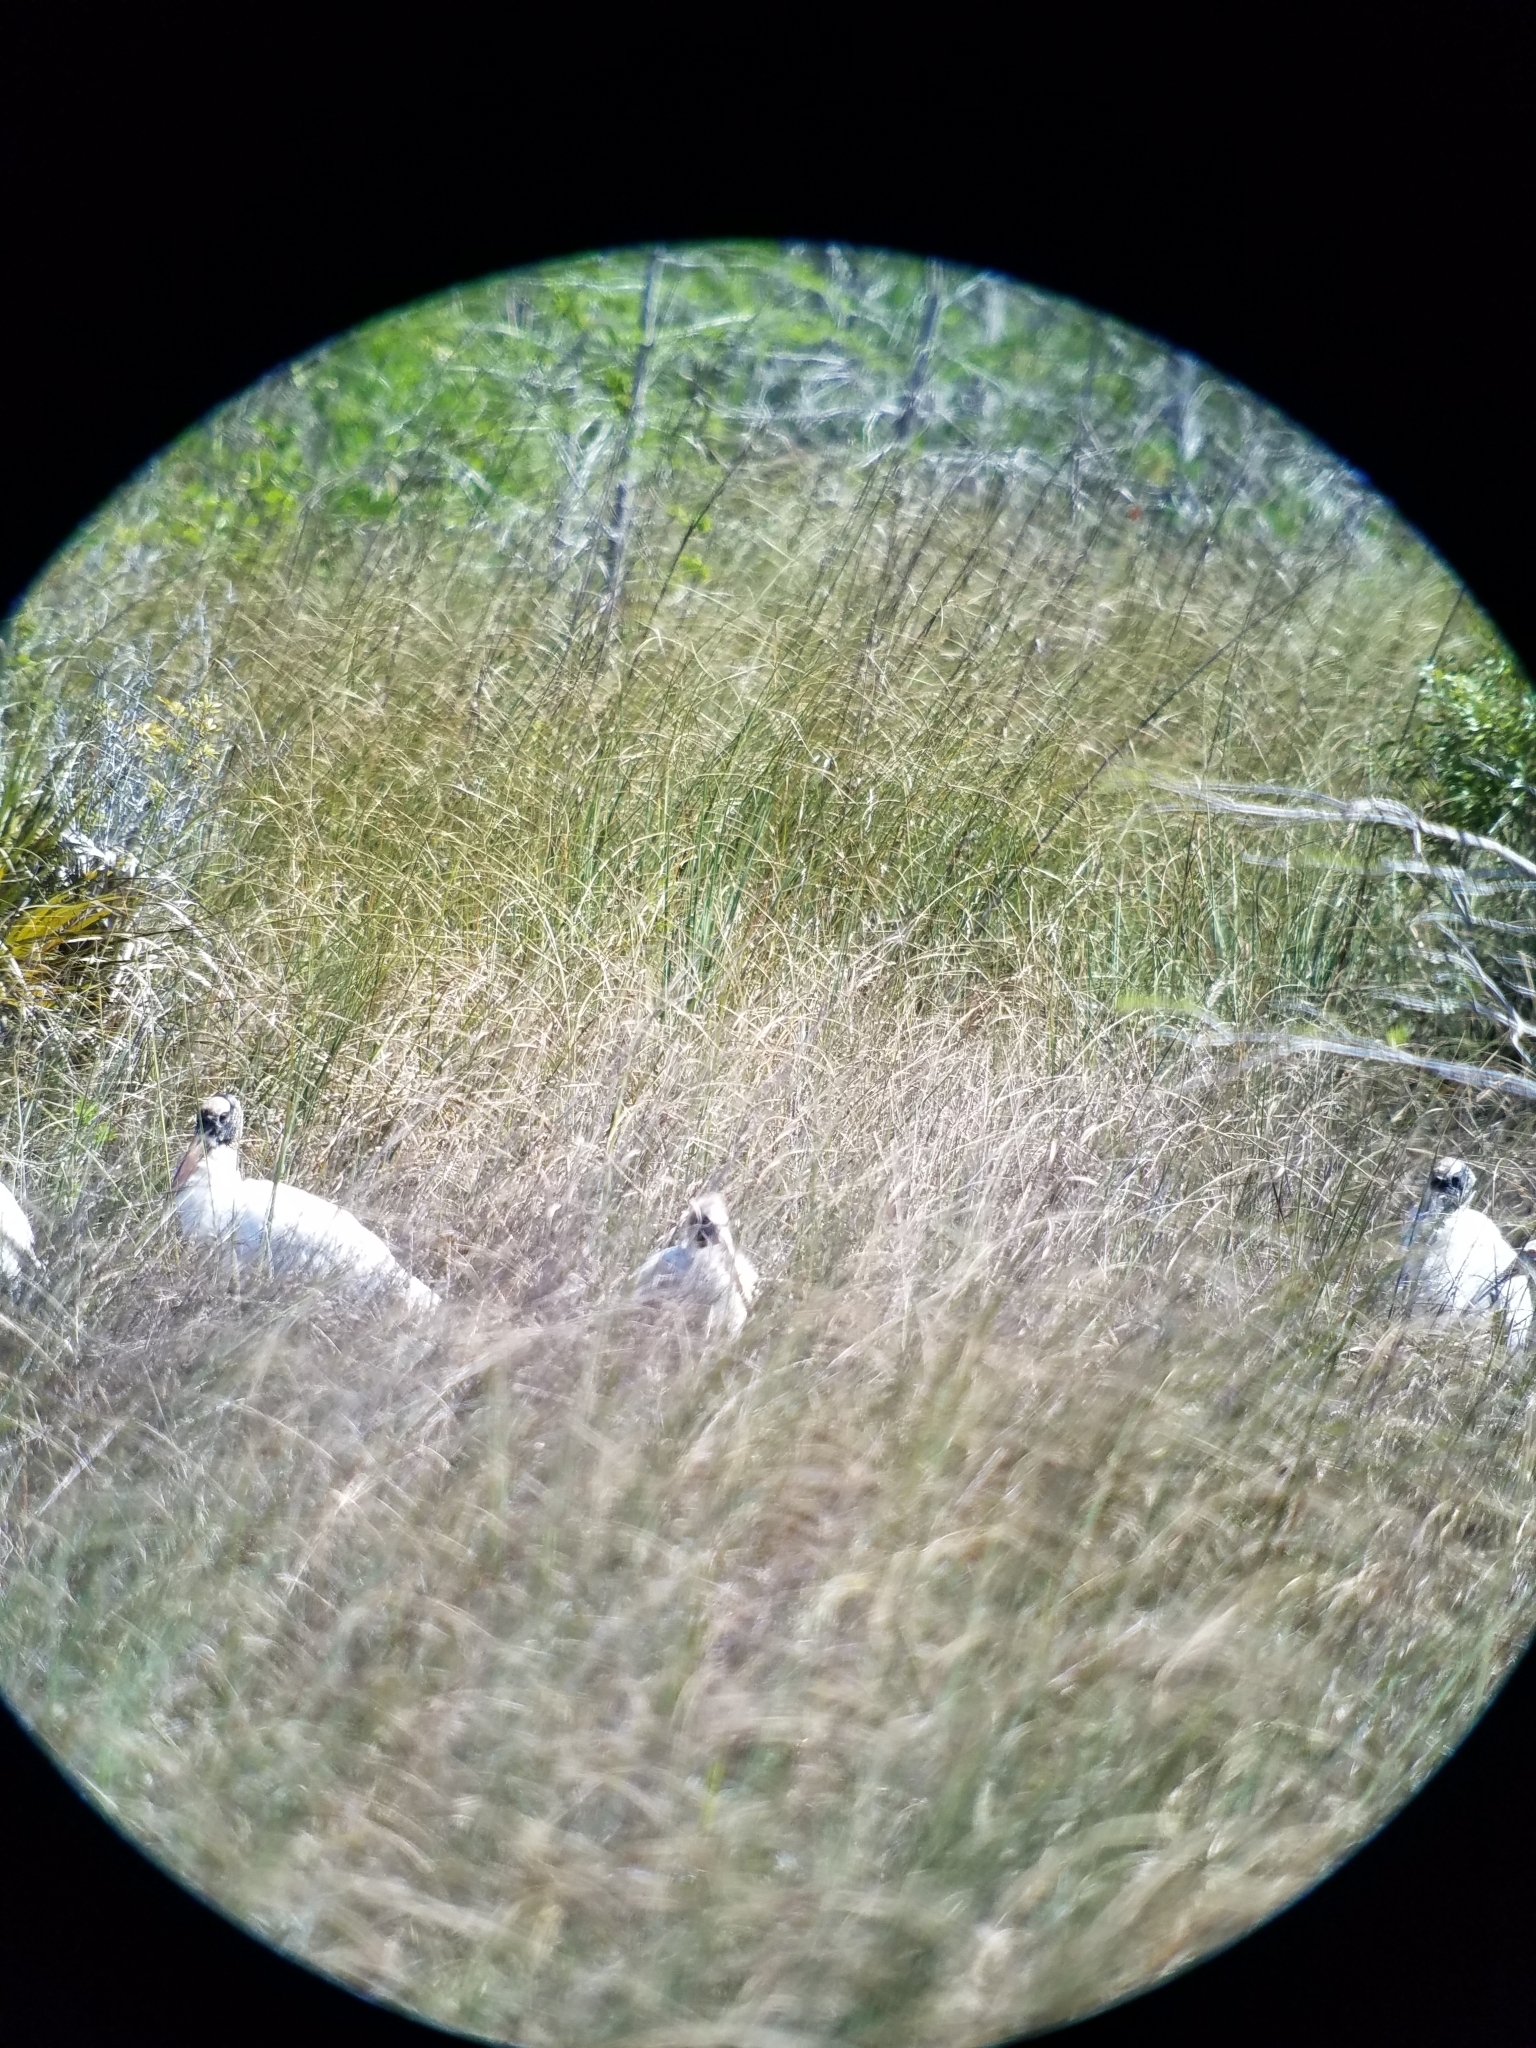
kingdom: Animalia
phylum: Chordata
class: Aves
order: Ciconiiformes
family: Ciconiidae
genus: Mycteria
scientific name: Mycteria americana
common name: Wood stork
